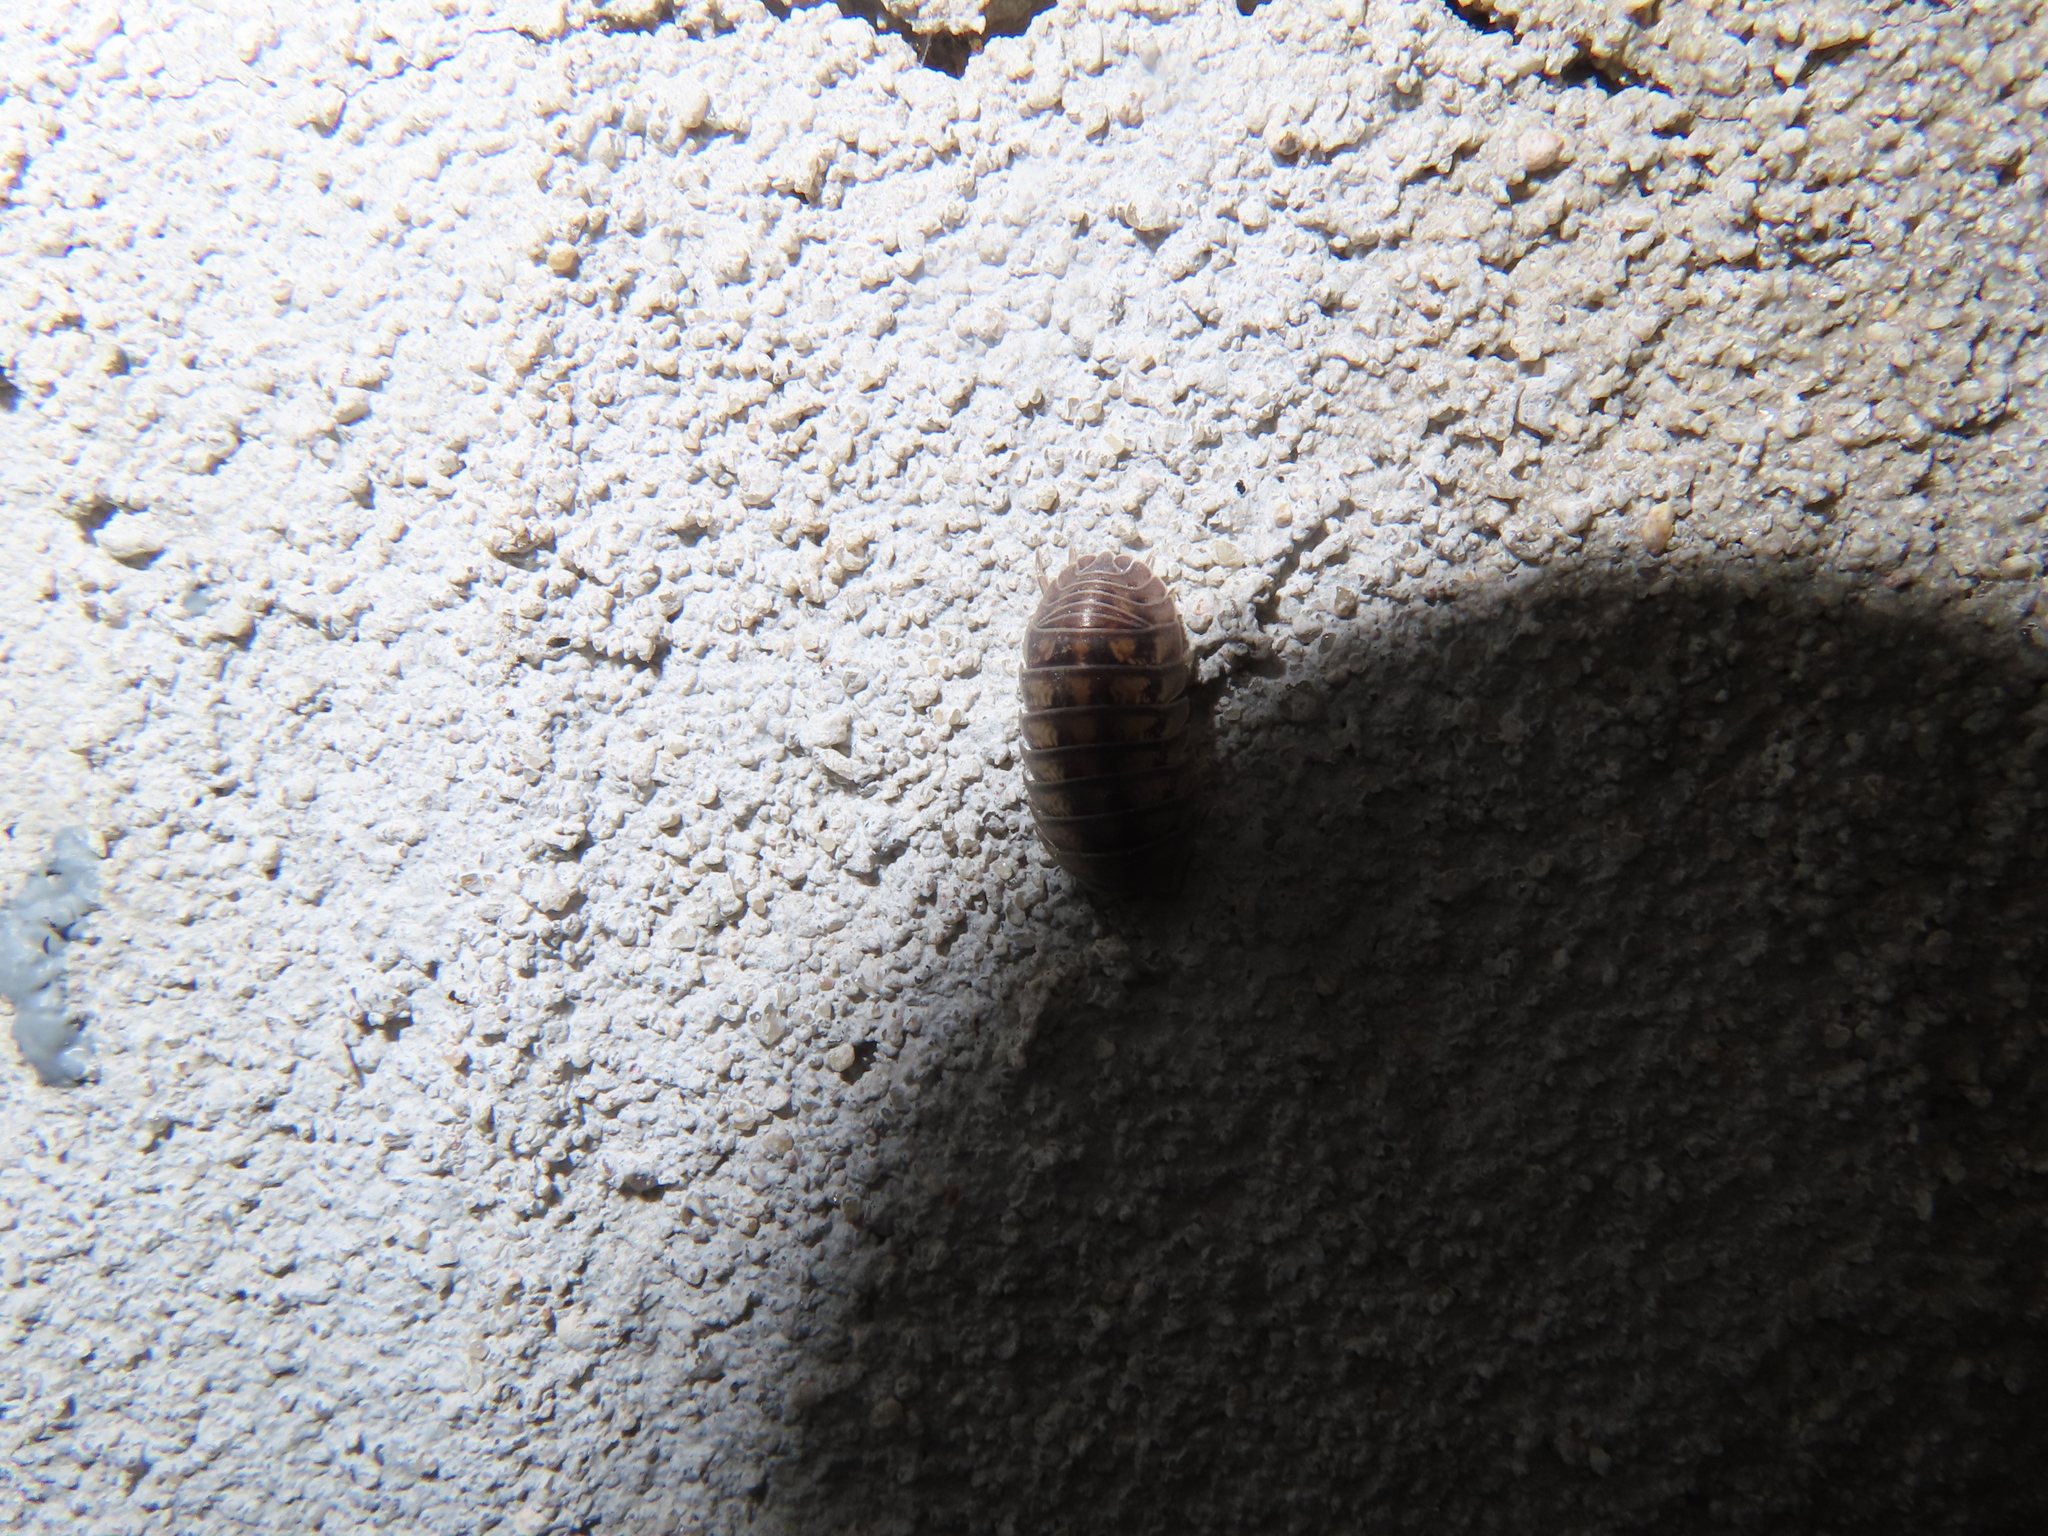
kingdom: Animalia
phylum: Arthropoda
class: Malacostraca
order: Isopoda
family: Armadillidiidae
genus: Armadillidium
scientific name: Armadillidium nasatum
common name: Isopod
